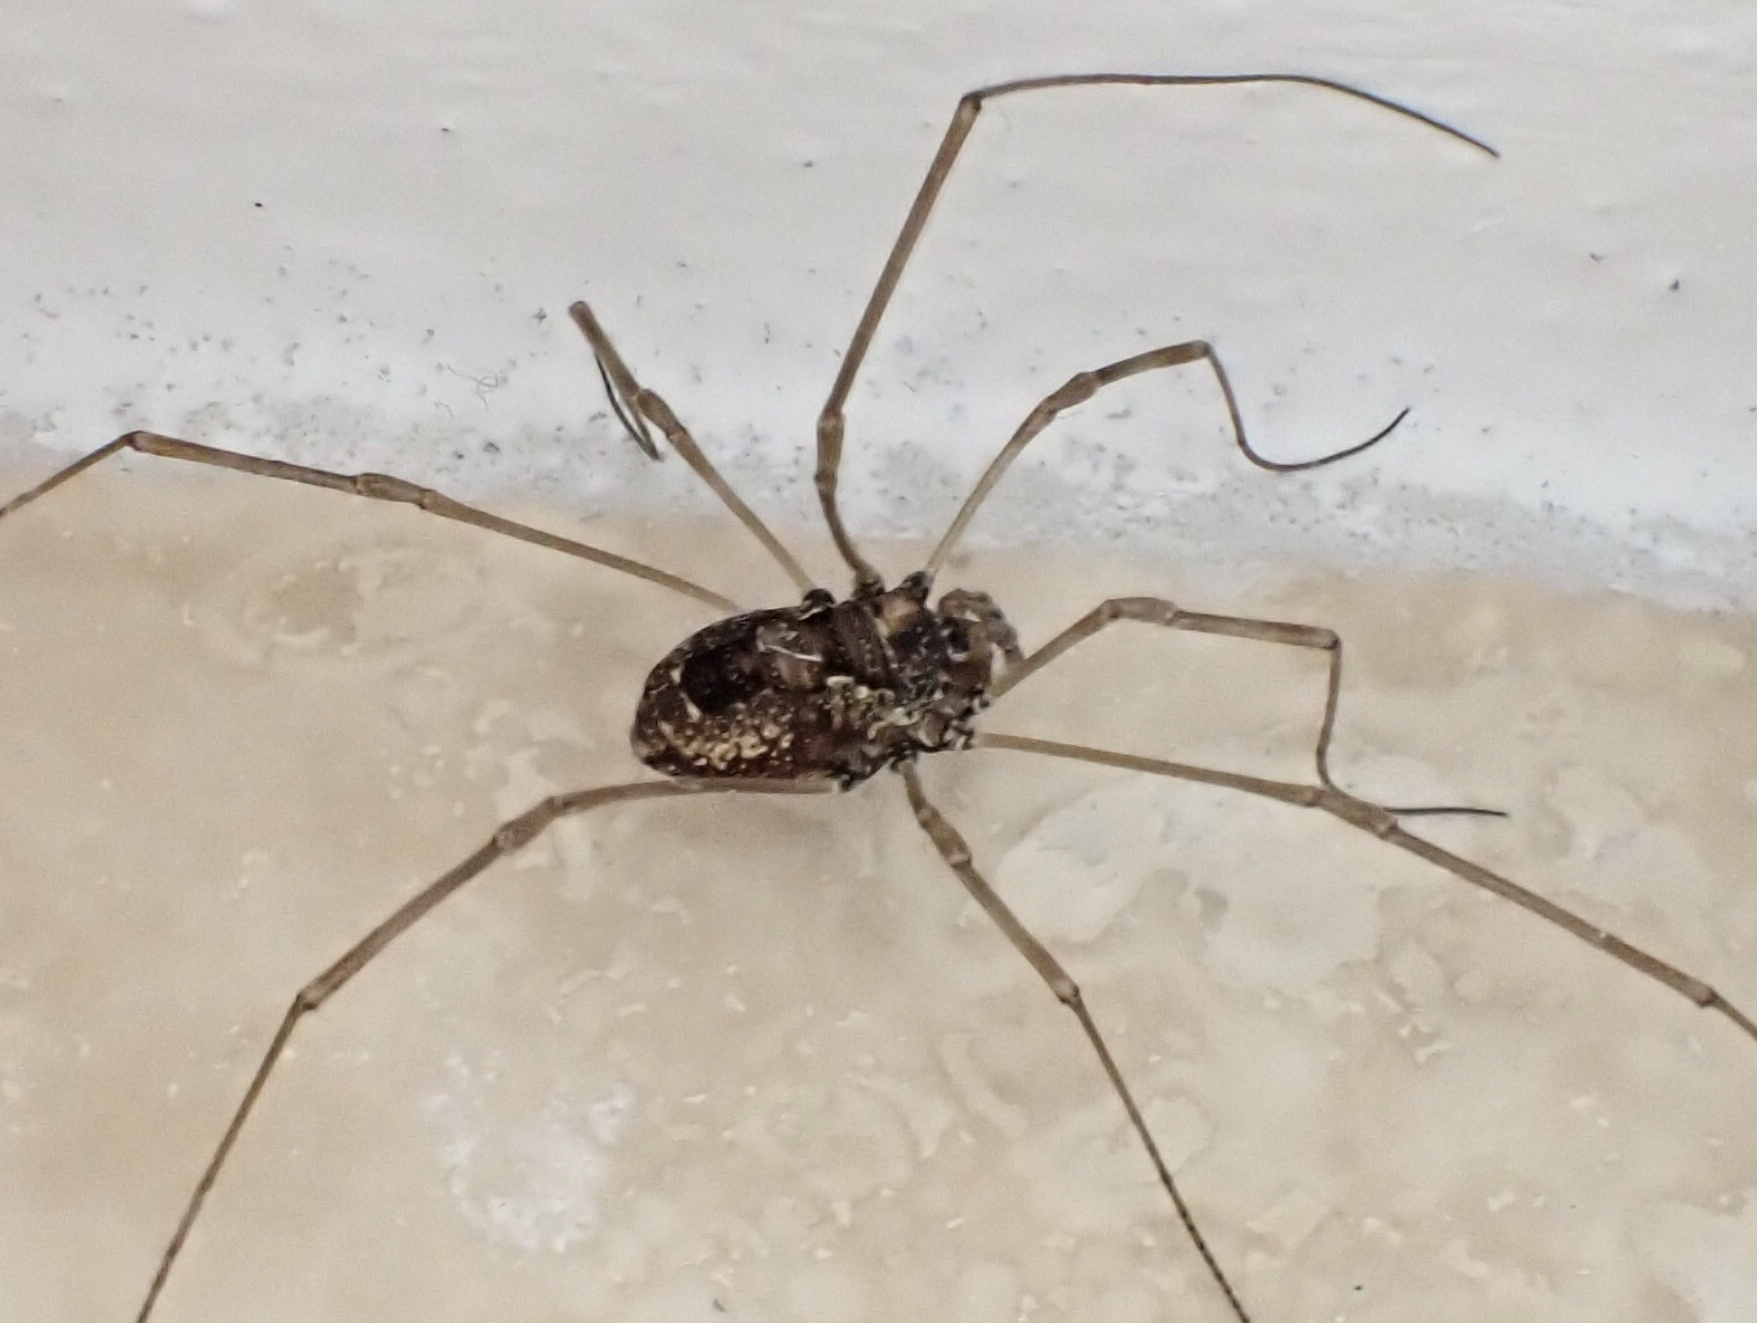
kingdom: Animalia
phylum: Arthropoda
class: Arachnida
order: Opiliones
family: Phalangiidae
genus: Platybunus
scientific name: Platybunus pinetorum
